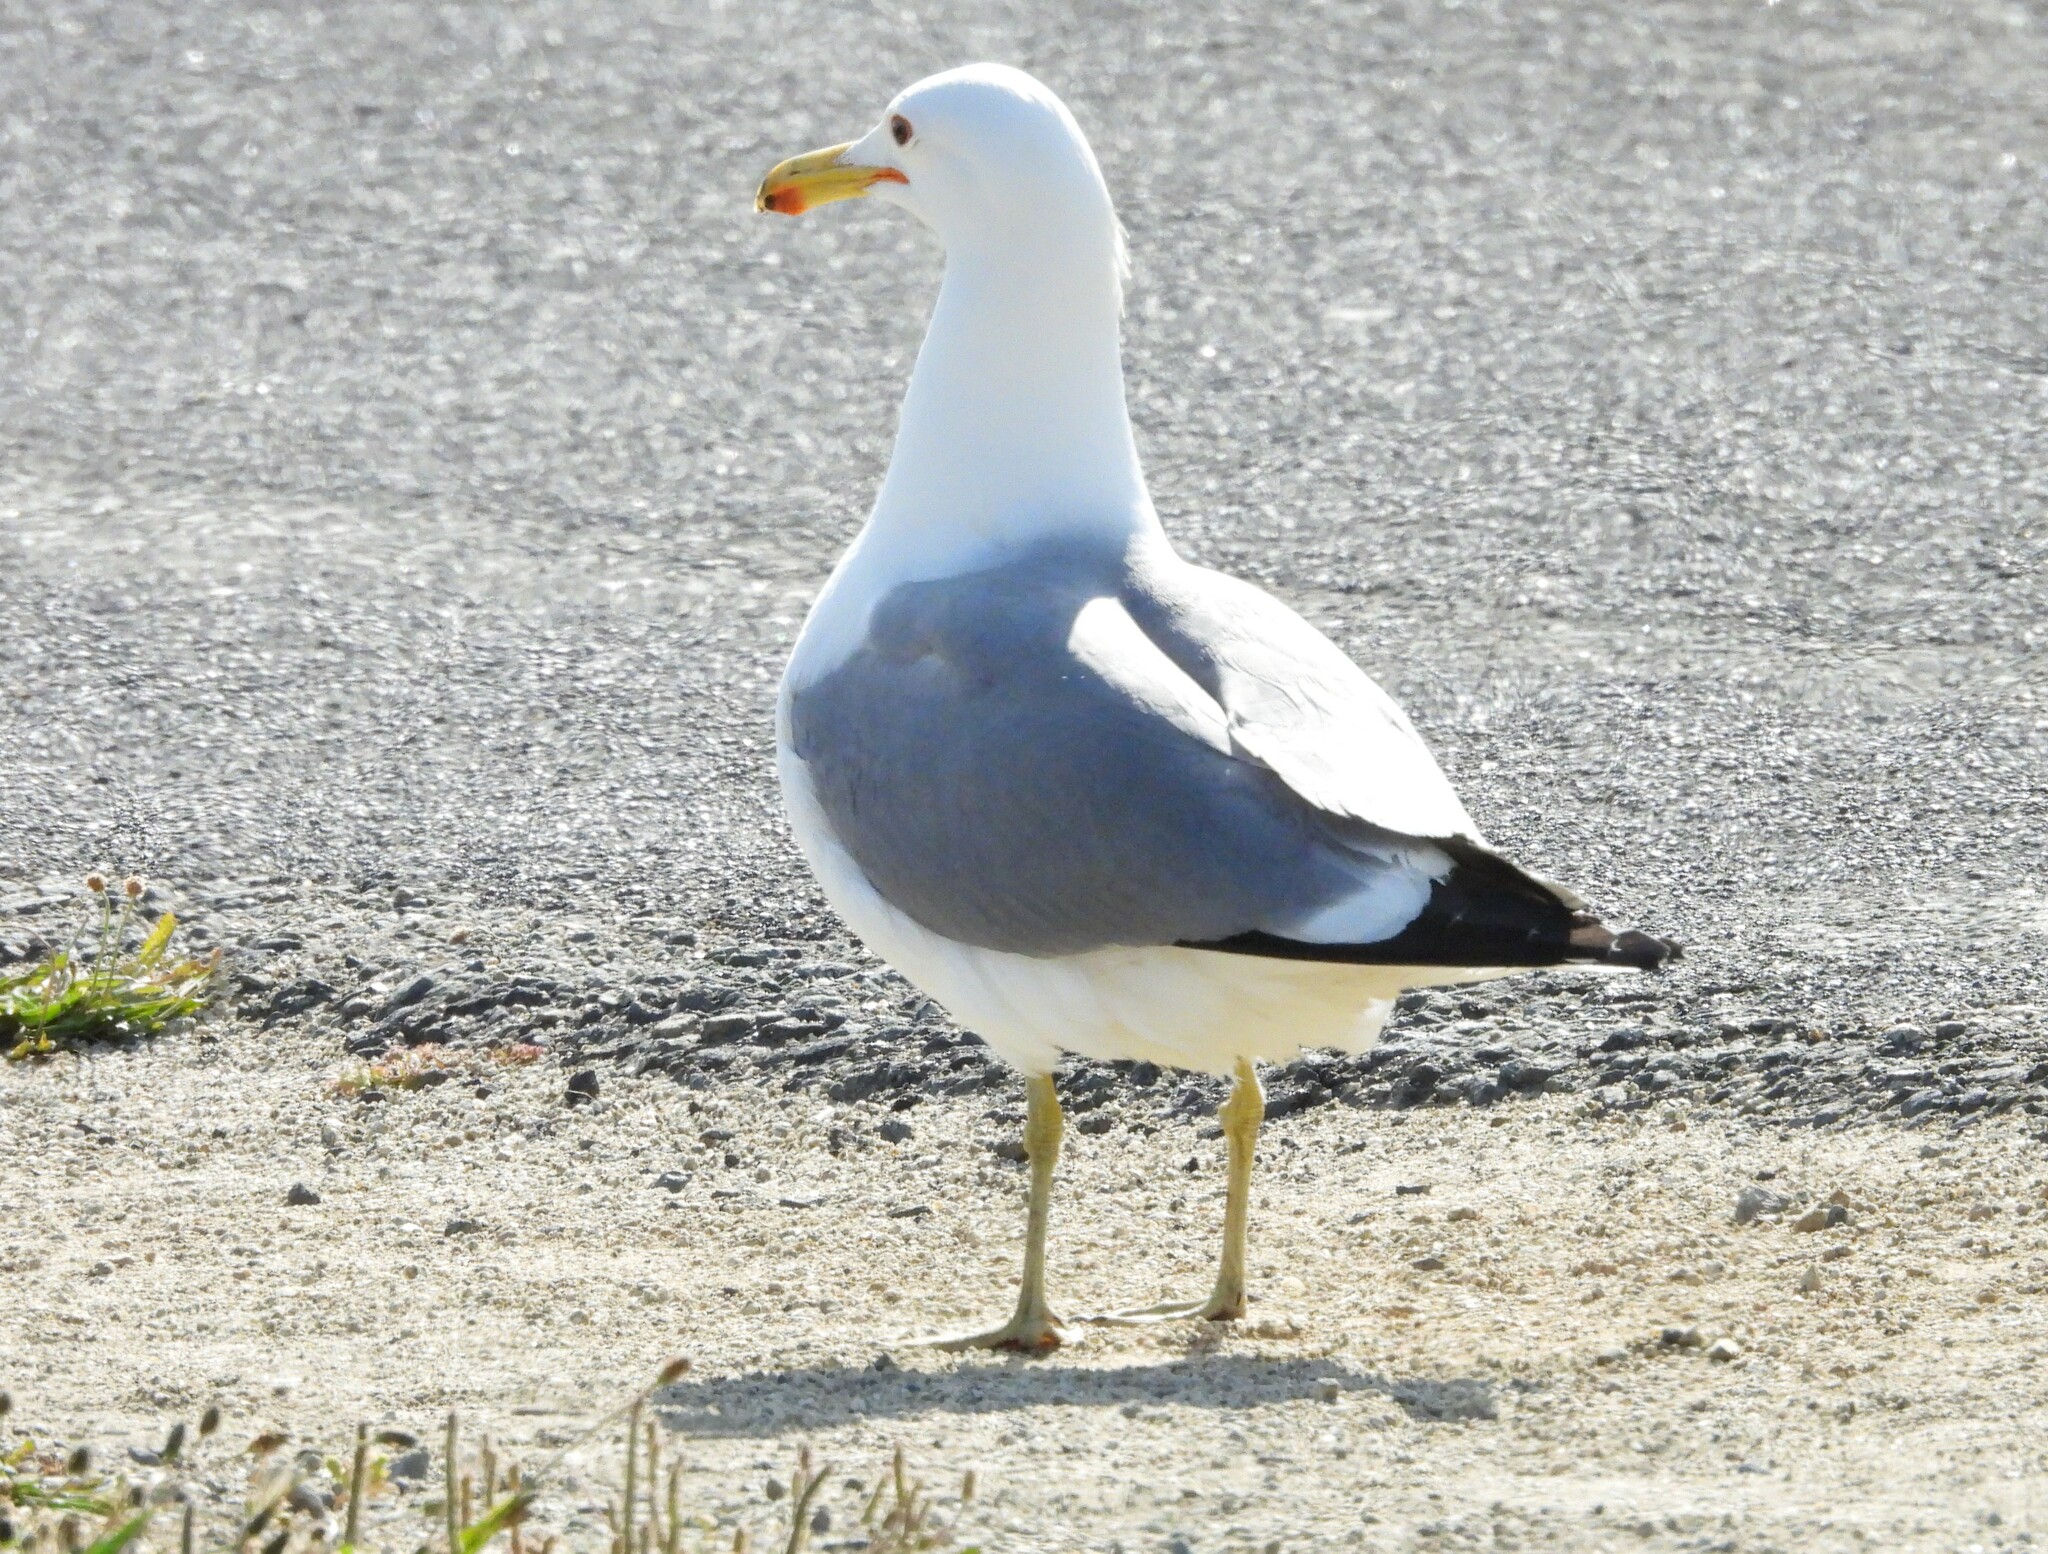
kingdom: Animalia
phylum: Chordata
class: Aves
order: Charadriiformes
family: Laridae
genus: Larus
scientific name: Larus californicus
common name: California gull
